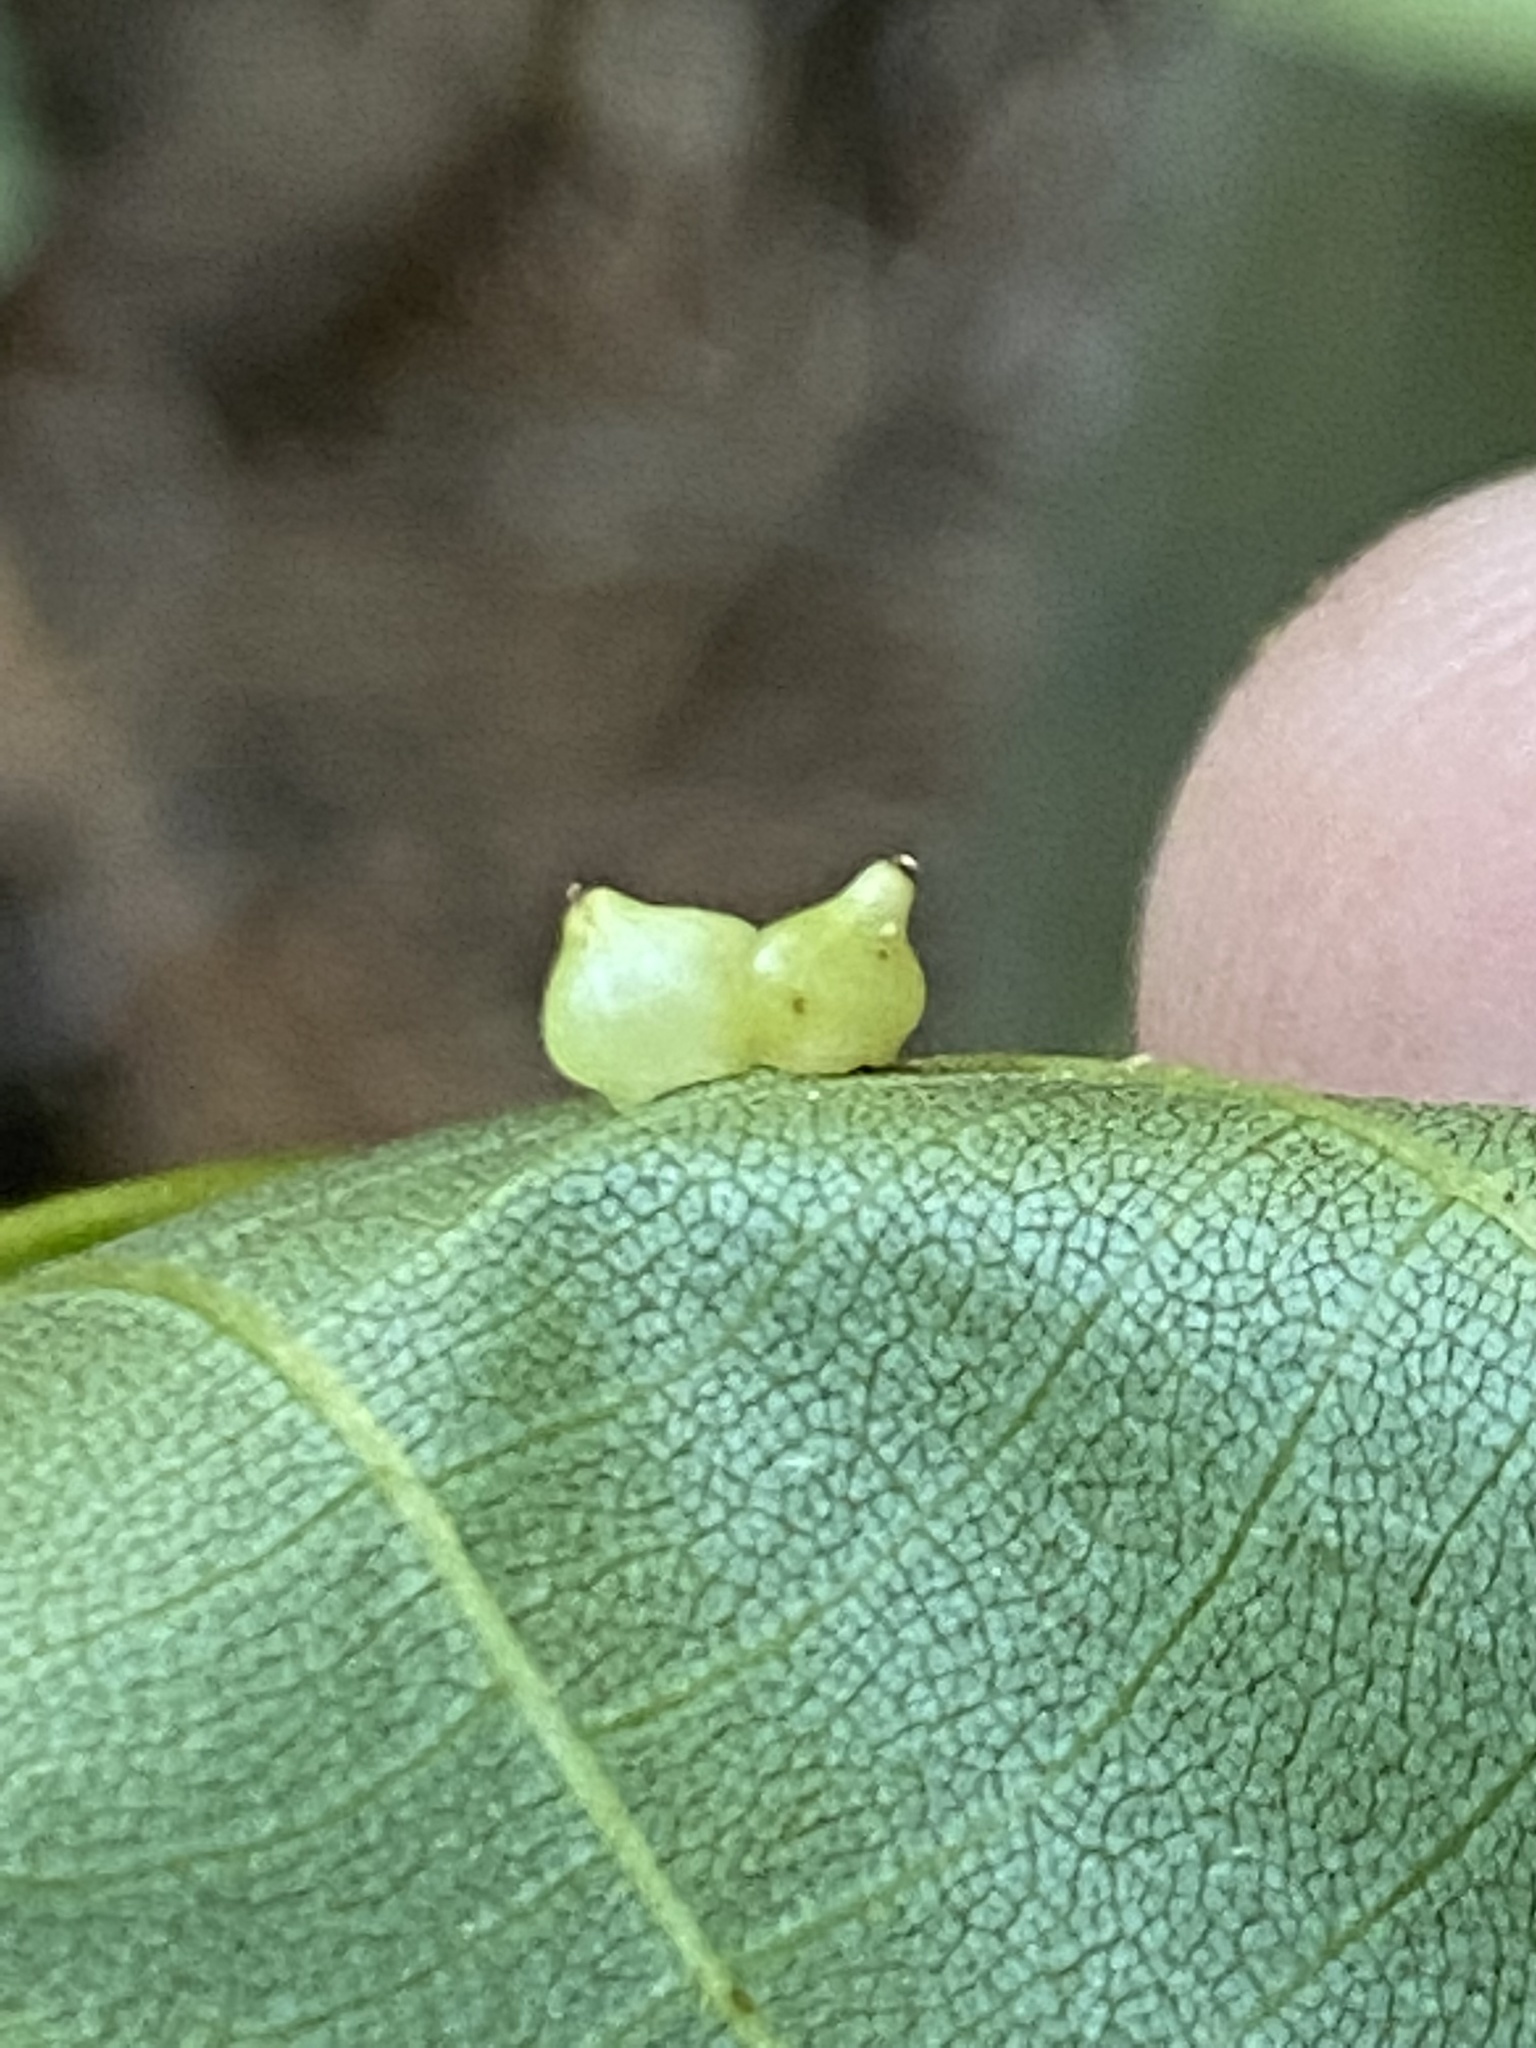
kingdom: Animalia
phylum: Arthropoda
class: Insecta
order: Diptera
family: Cecidomyiidae
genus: Caryomyia
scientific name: Caryomyia shmoo
